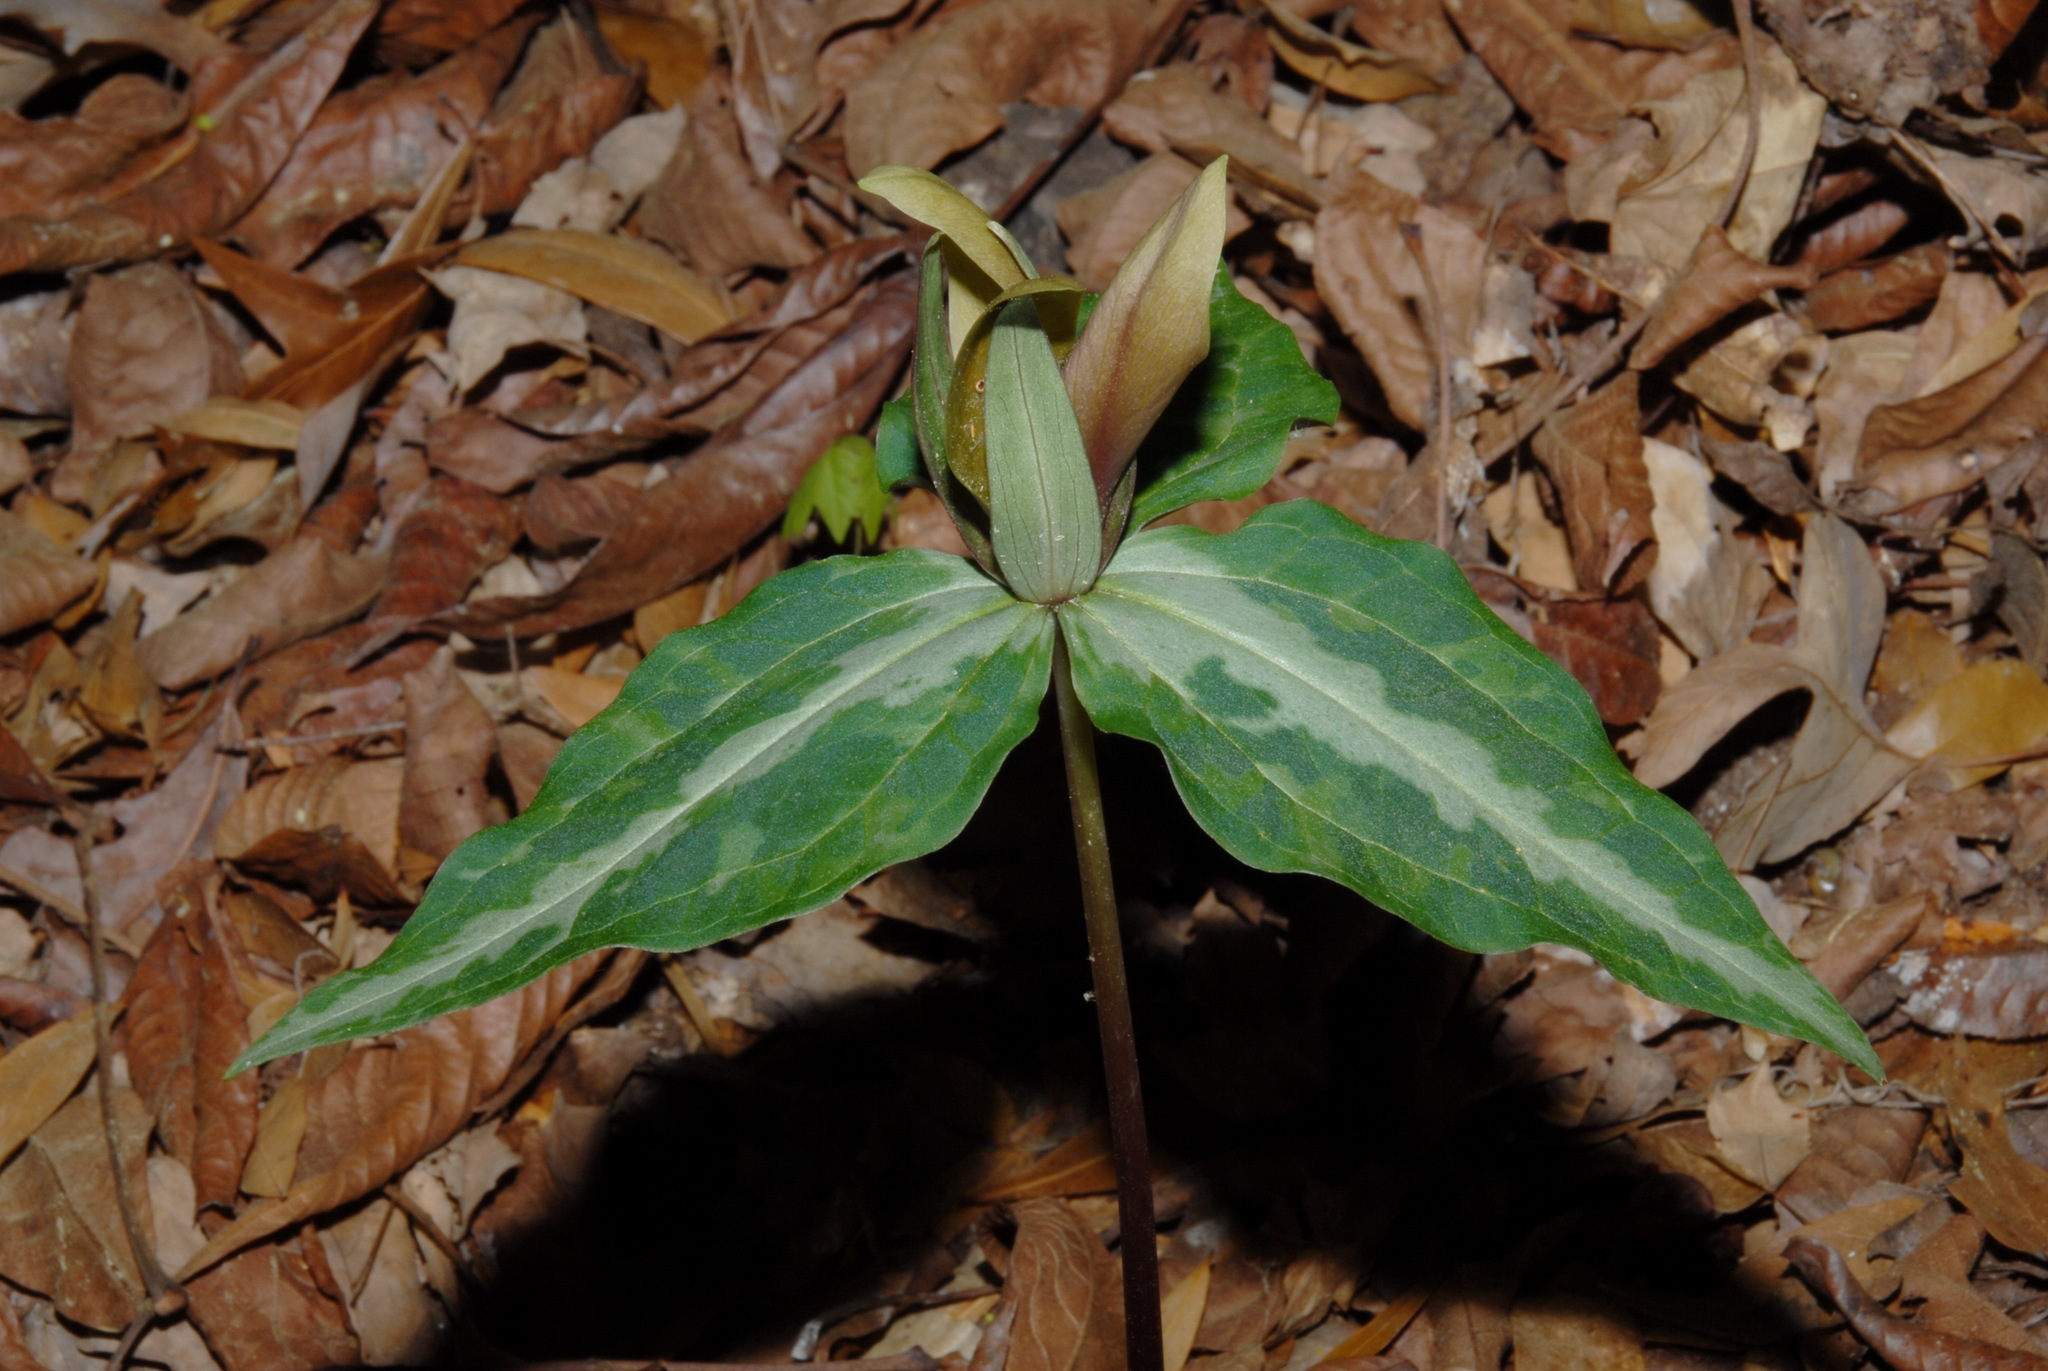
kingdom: Plantae
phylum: Tracheophyta
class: Liliopsida
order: Liliales
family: Melanthiaceae
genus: Trillium
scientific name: Trillium decipiens
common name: Chattahoochee river trillium
